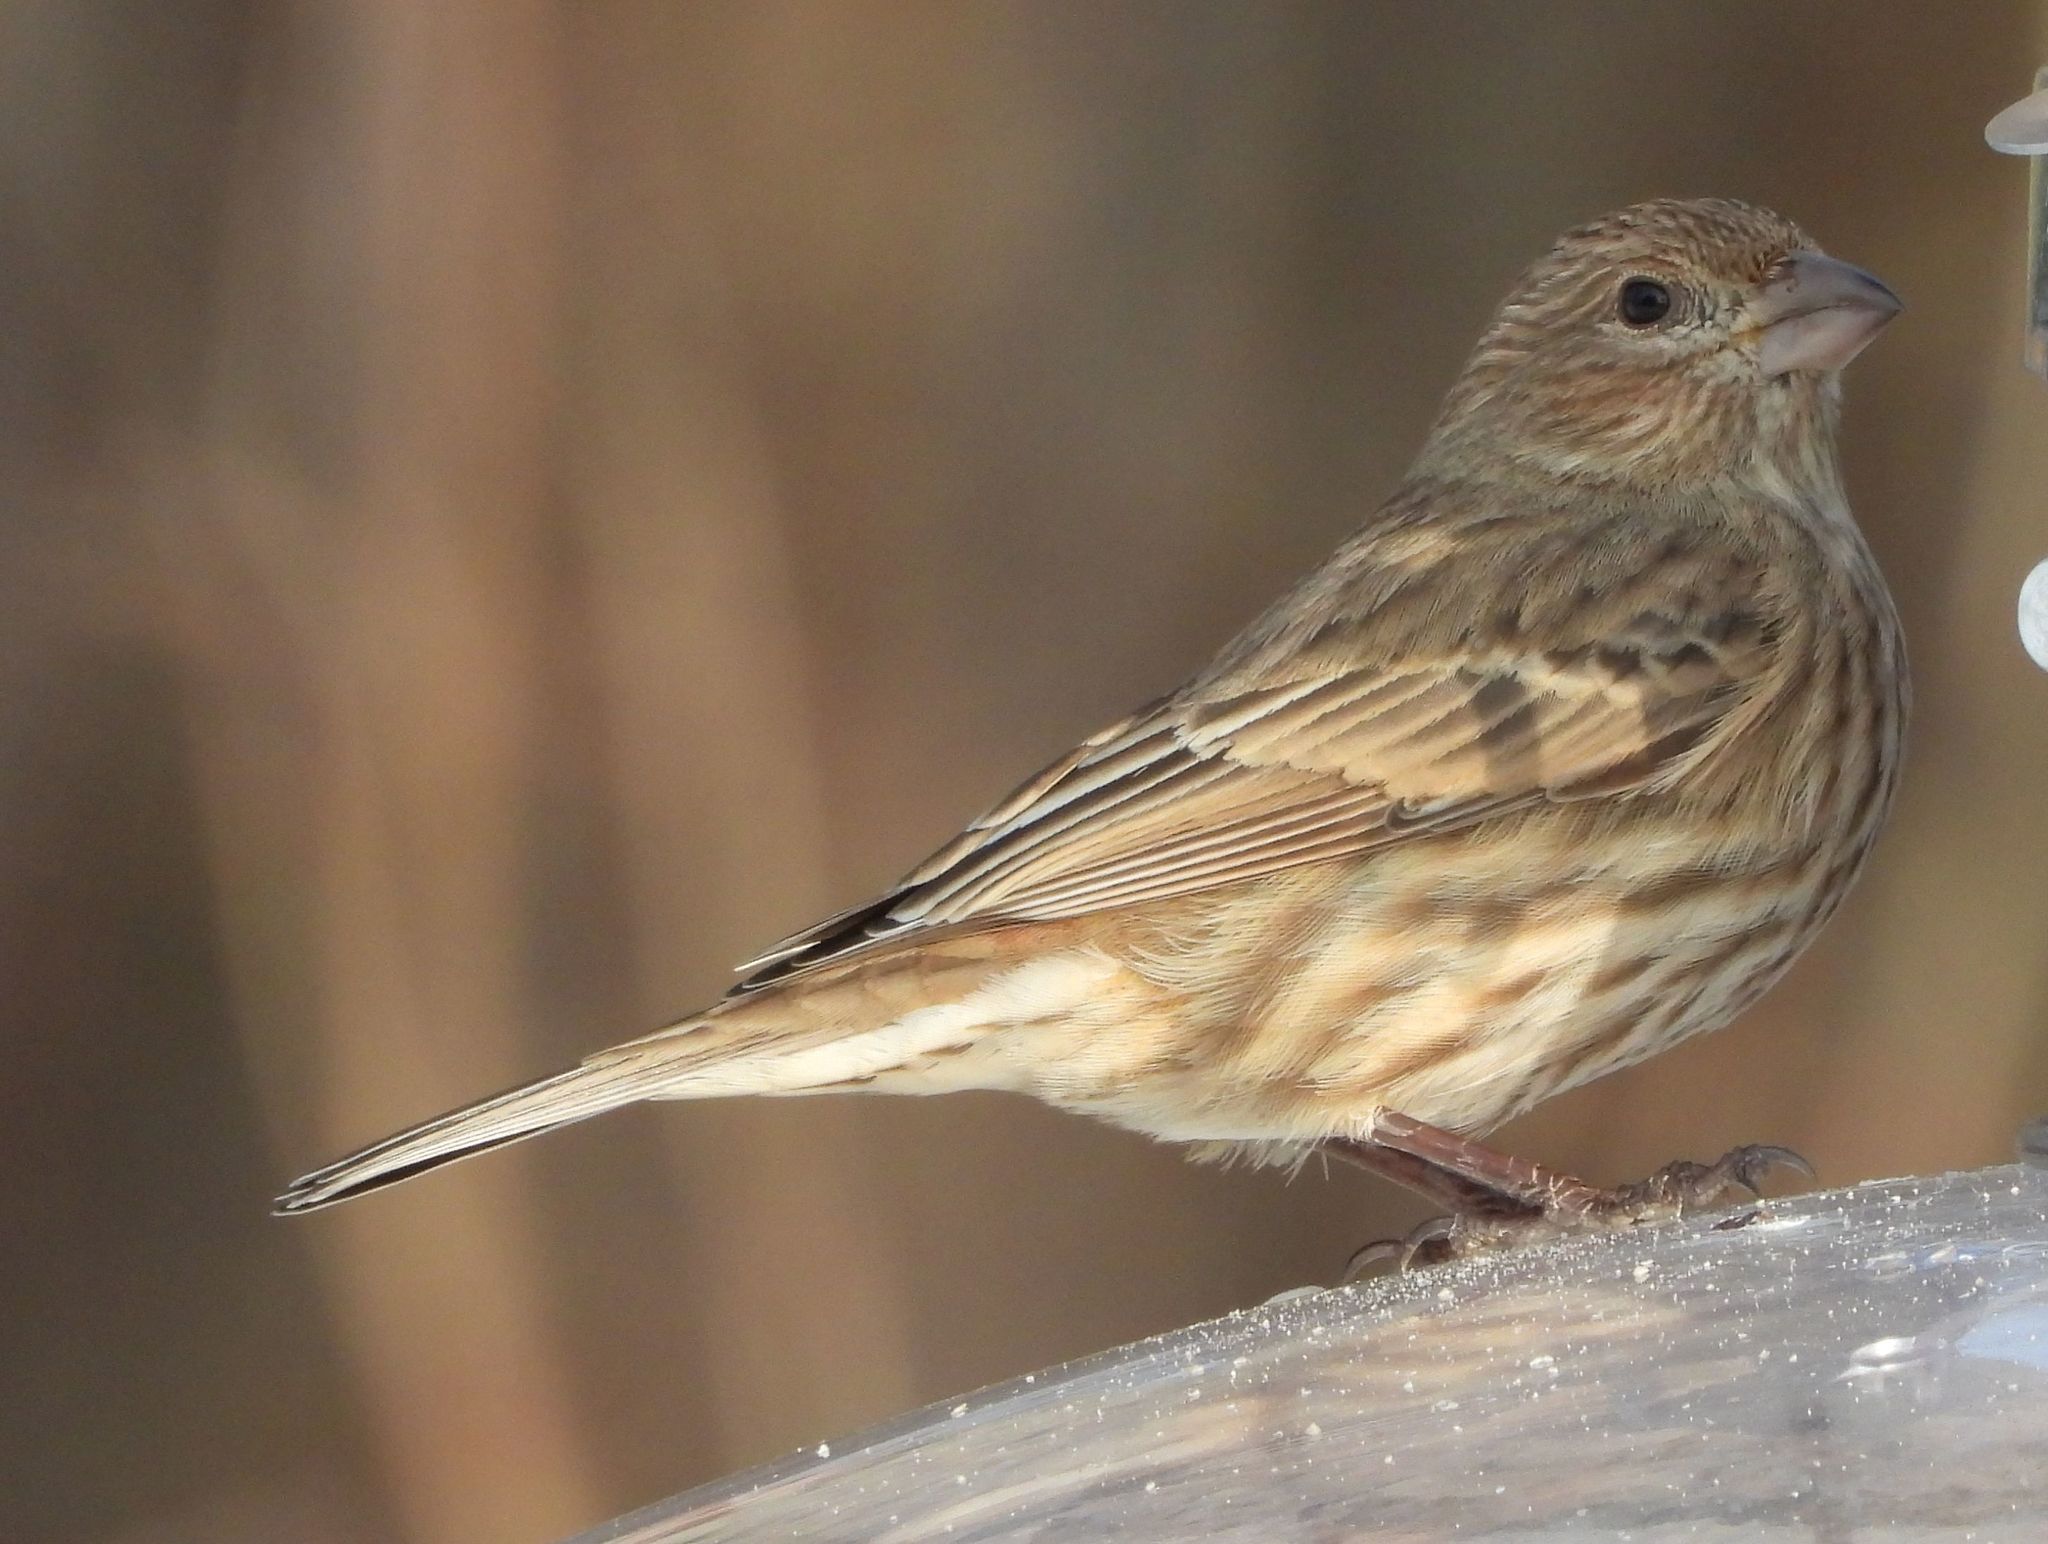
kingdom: Animalia
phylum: Chordata
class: Aves
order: Passeriformes
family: Fringillidae
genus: Haemorhous
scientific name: Haemorhous mexicanus
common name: House finch
